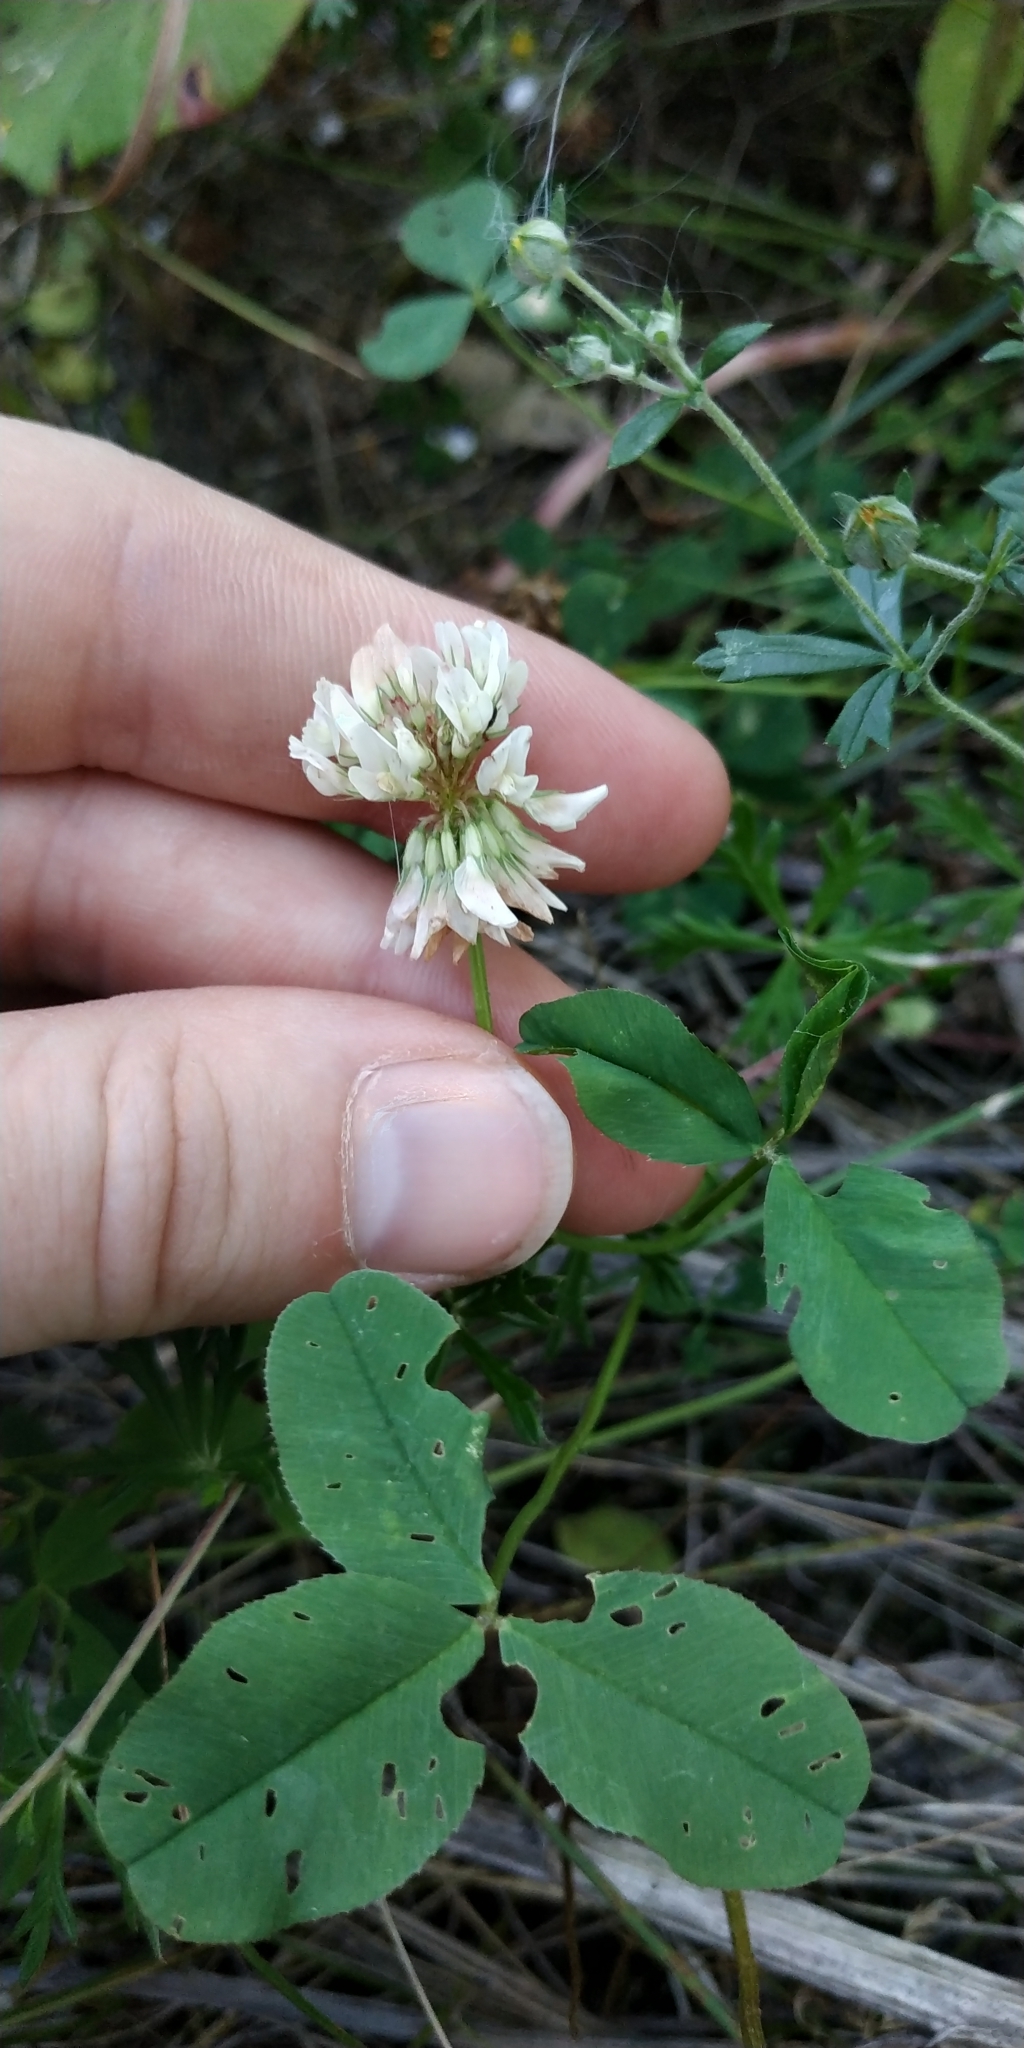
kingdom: Plantae
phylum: Tracheophyta
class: Magnoliopsida
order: Fabales
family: Fabaceae
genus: Trifolium
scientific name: Trifolium repens
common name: White clover
